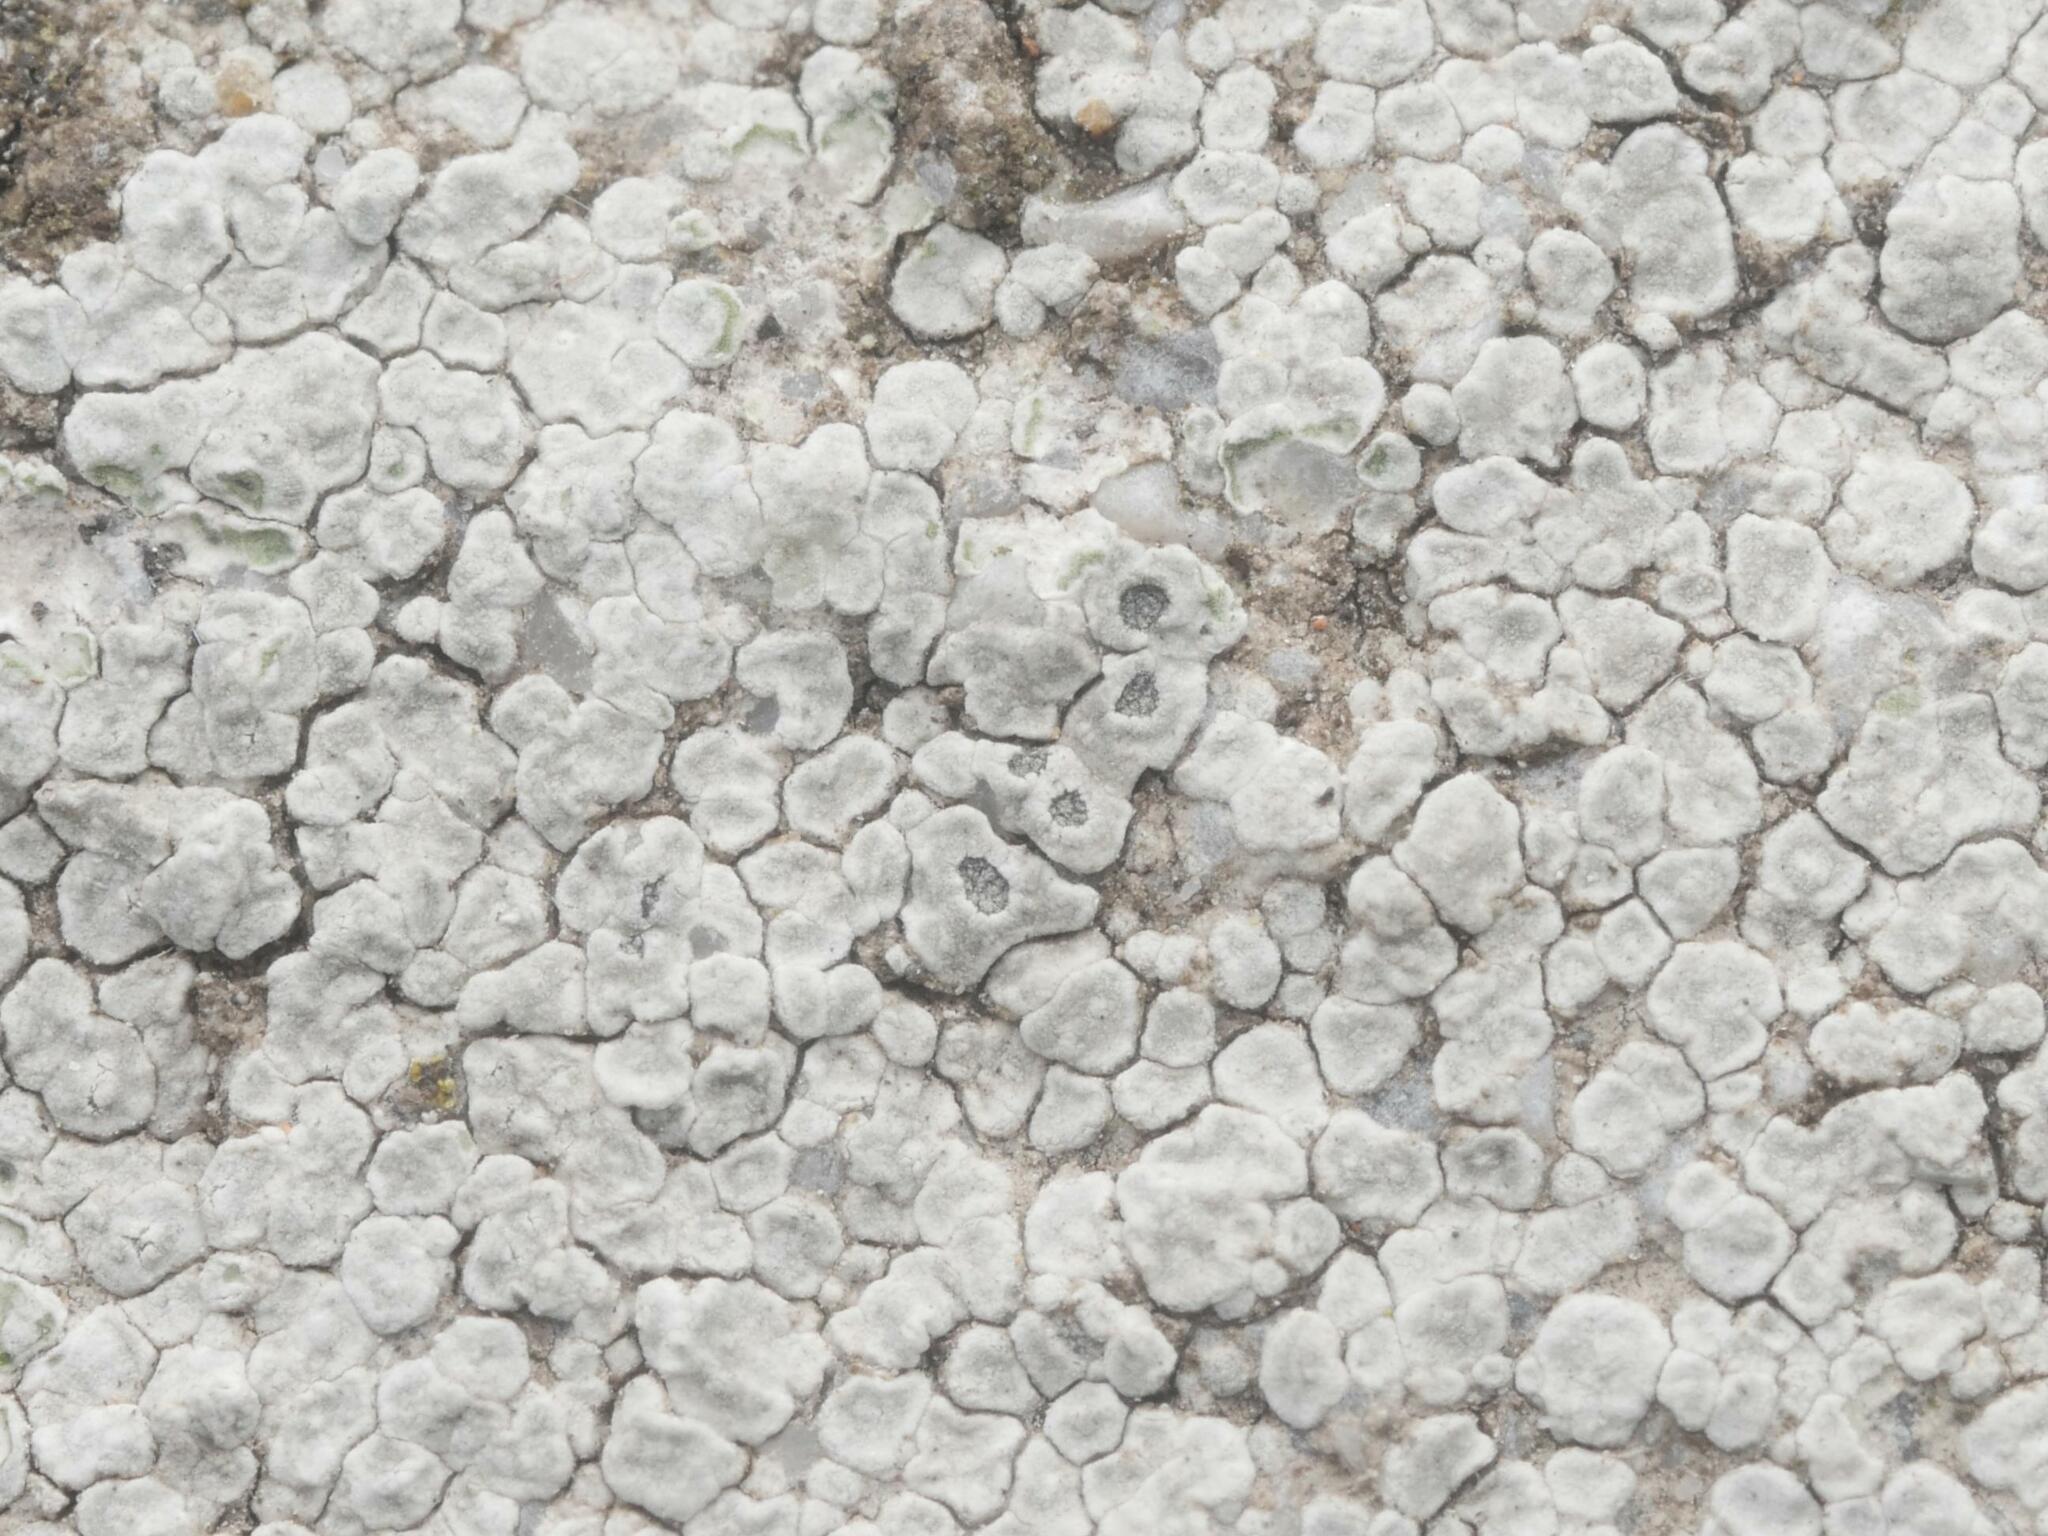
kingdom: Fungi
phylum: Ascomycota
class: Lecanoromycetes
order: Pertusariales
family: Megasporaceae
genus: Circinaria
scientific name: Circinaria contorta
